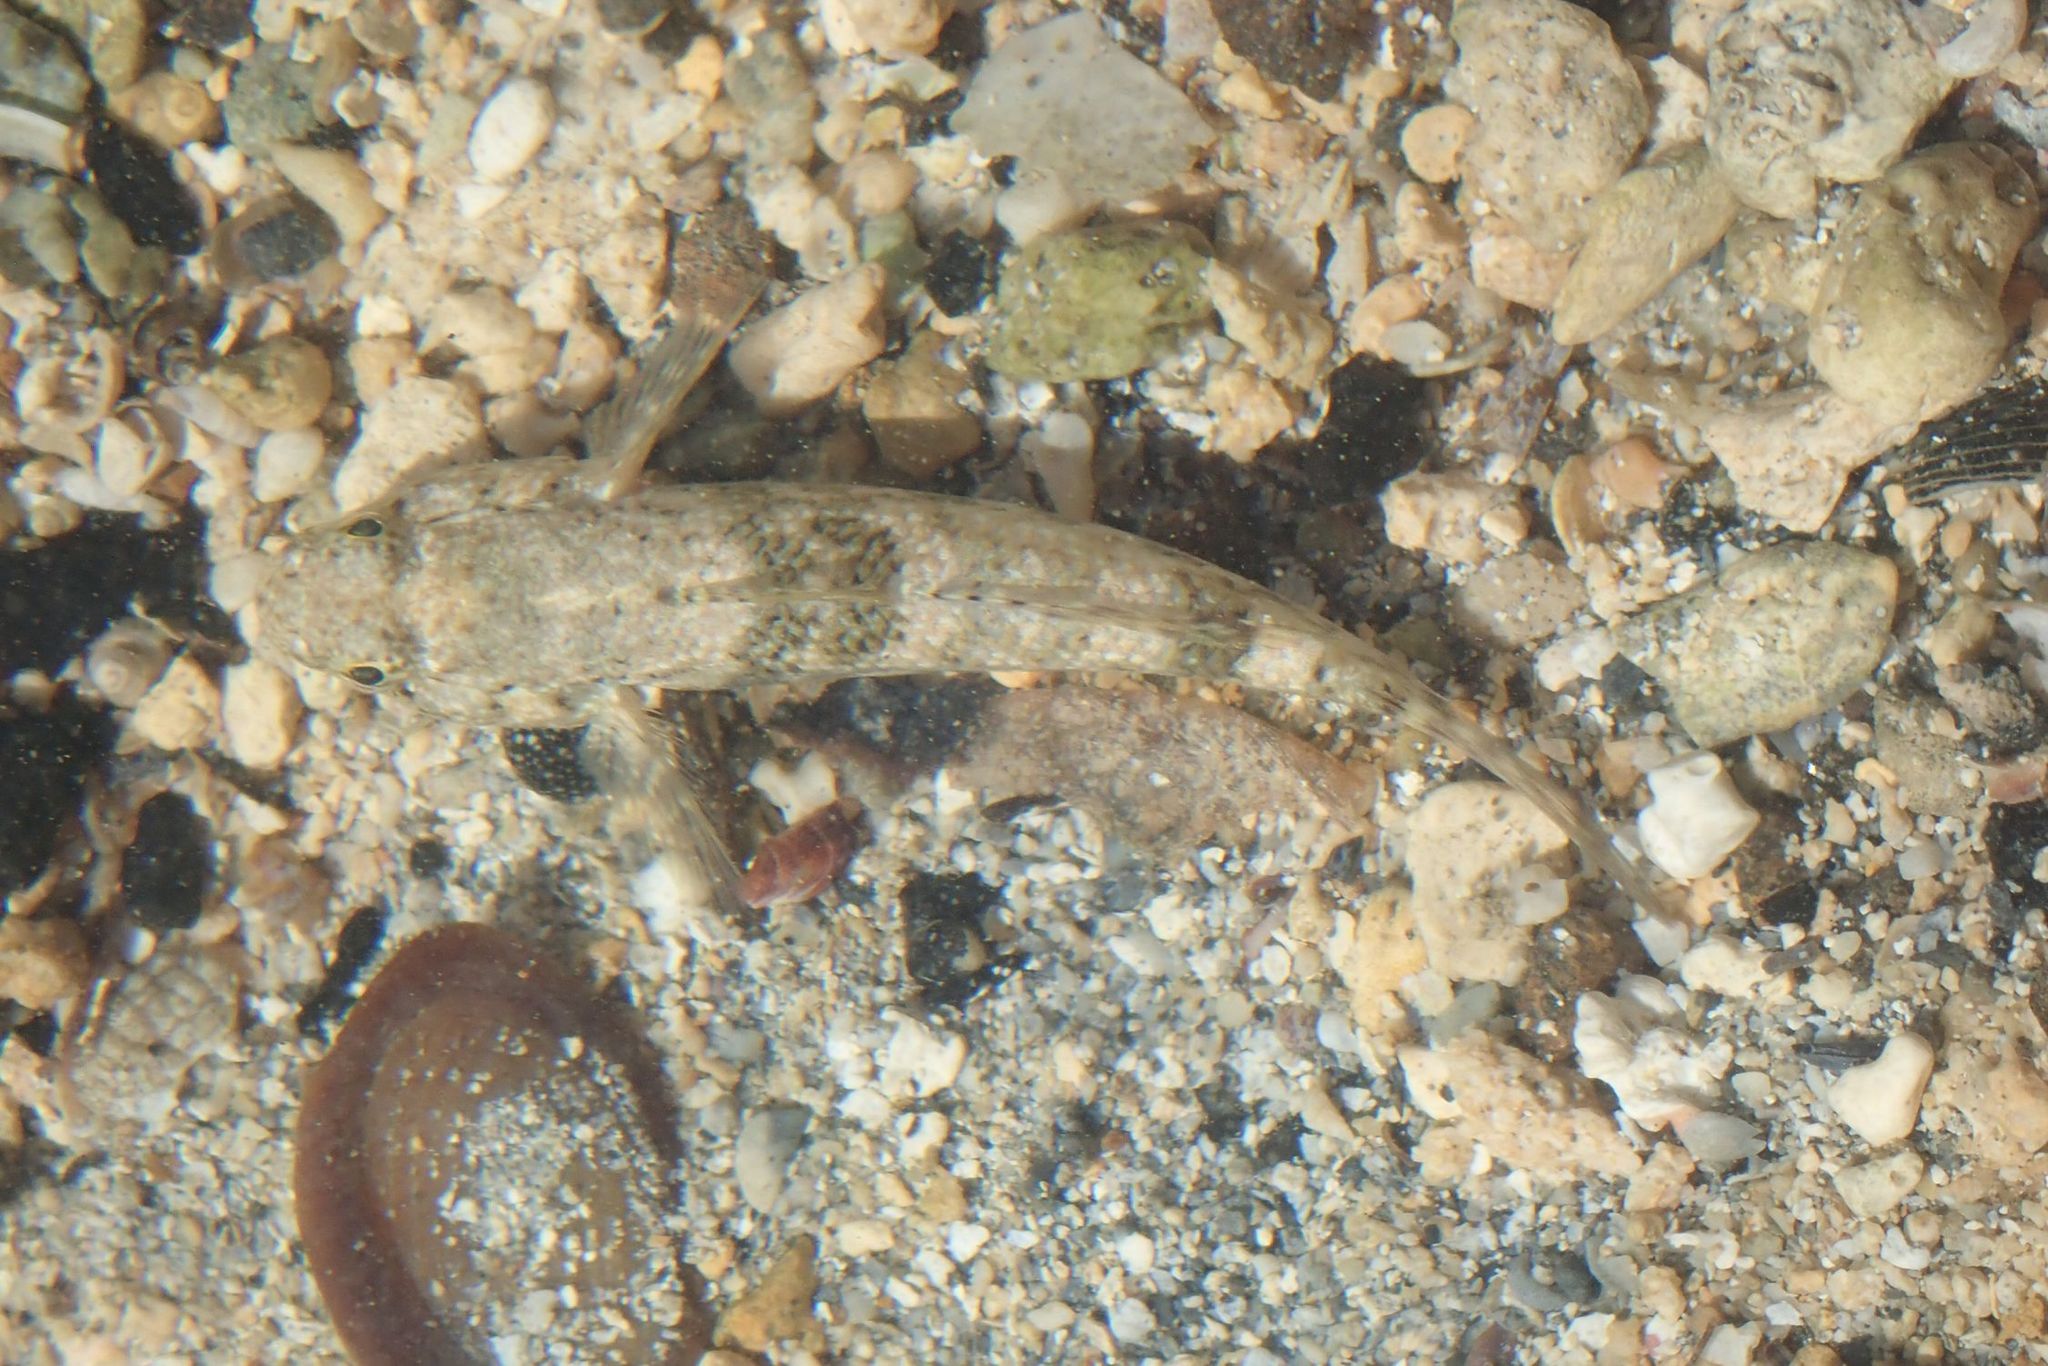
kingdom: Animalia
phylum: Chordata
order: Perciformes
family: Gobiidae
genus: Bathygobius
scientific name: Bathygobius coalitus
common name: Whitespotted goby
